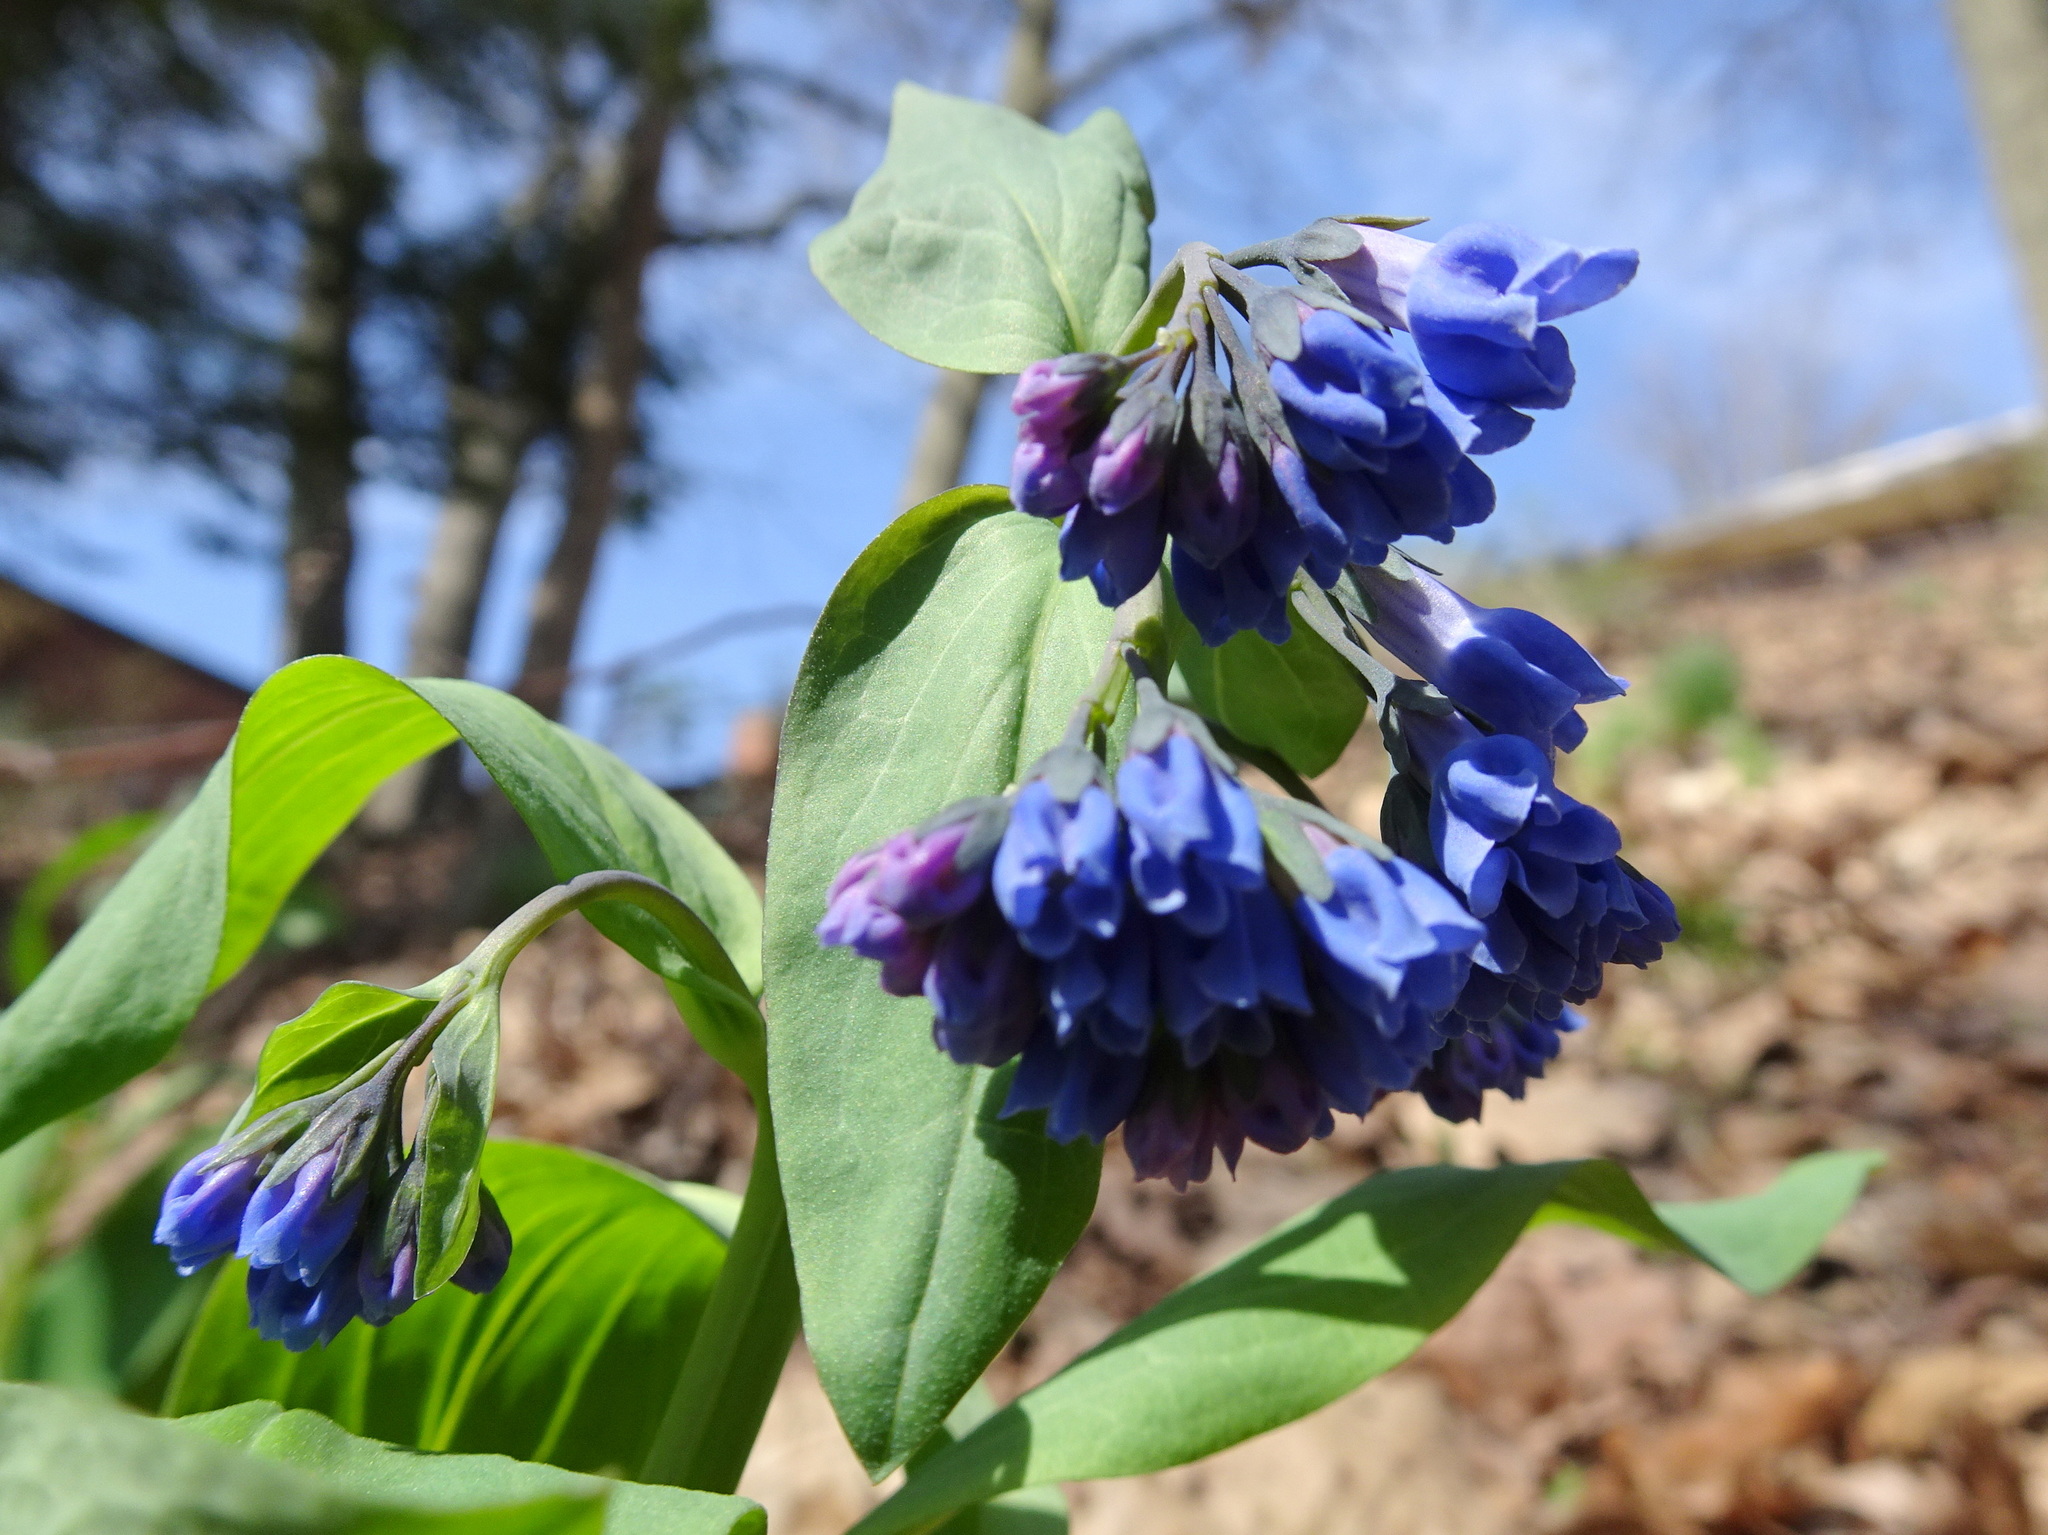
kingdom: Plantae
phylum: Tracheophyta
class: Magnoliopsida
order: Boraginales
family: Boraginaceae
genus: Mertensia
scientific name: Mertensia virginica
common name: Virginia bluebells
